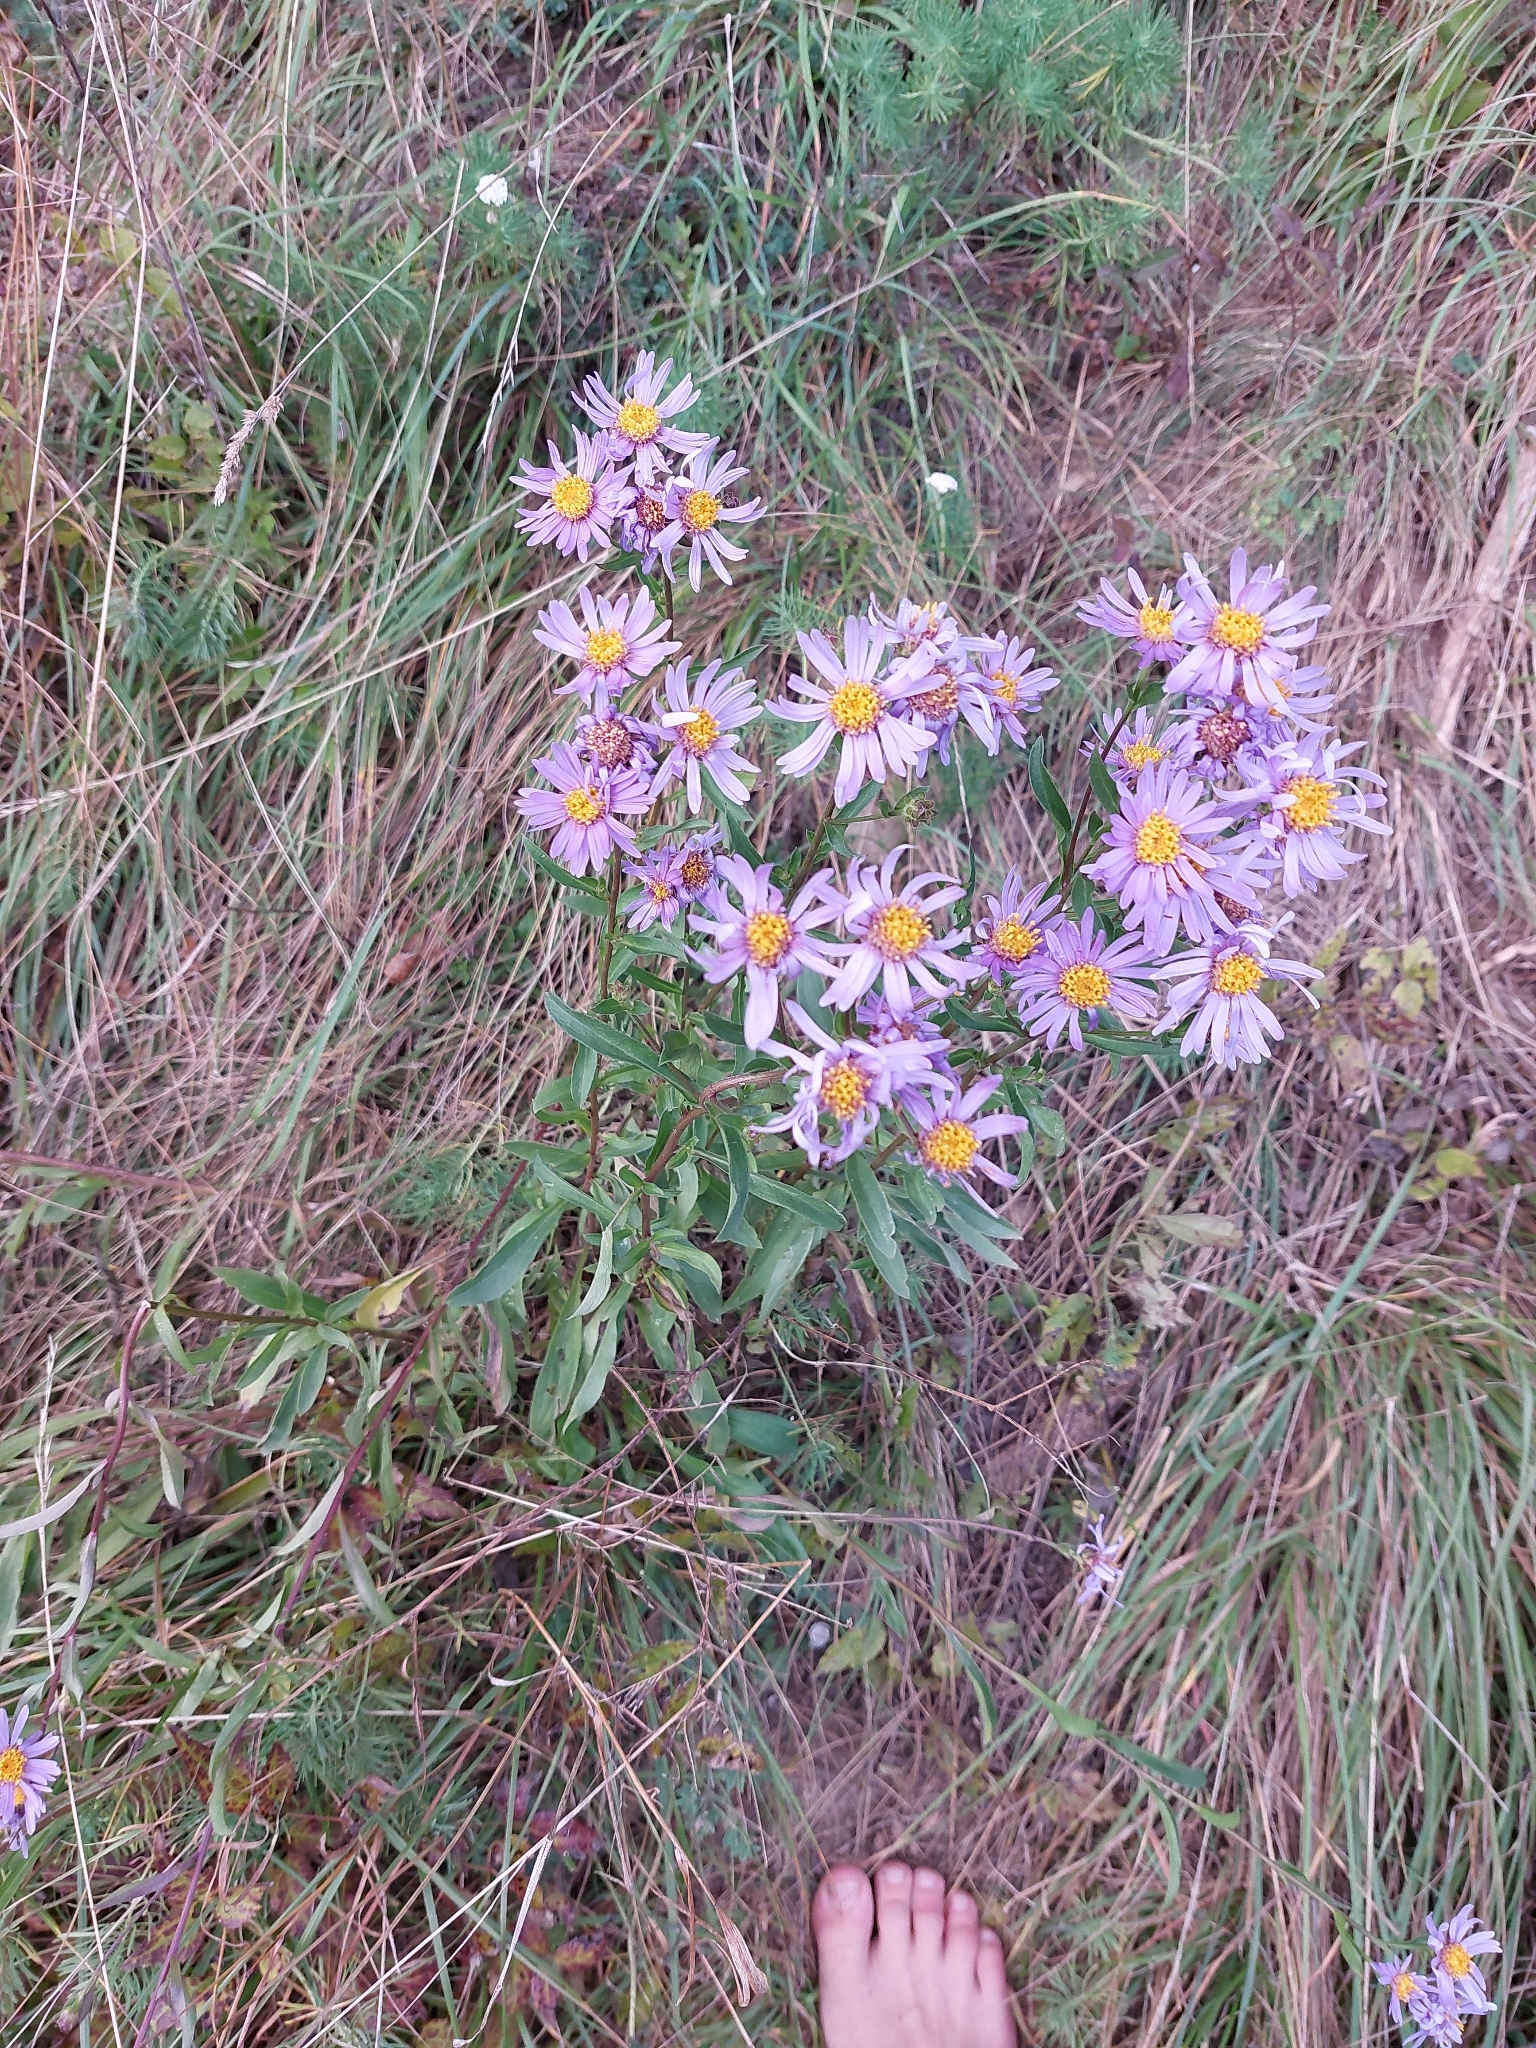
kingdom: Plantae
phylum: Tracheophyta
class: Magnoliopsida
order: Asterales
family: Asteraceae
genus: Aster
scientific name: Aster amellus
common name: European michaelmas daisy
